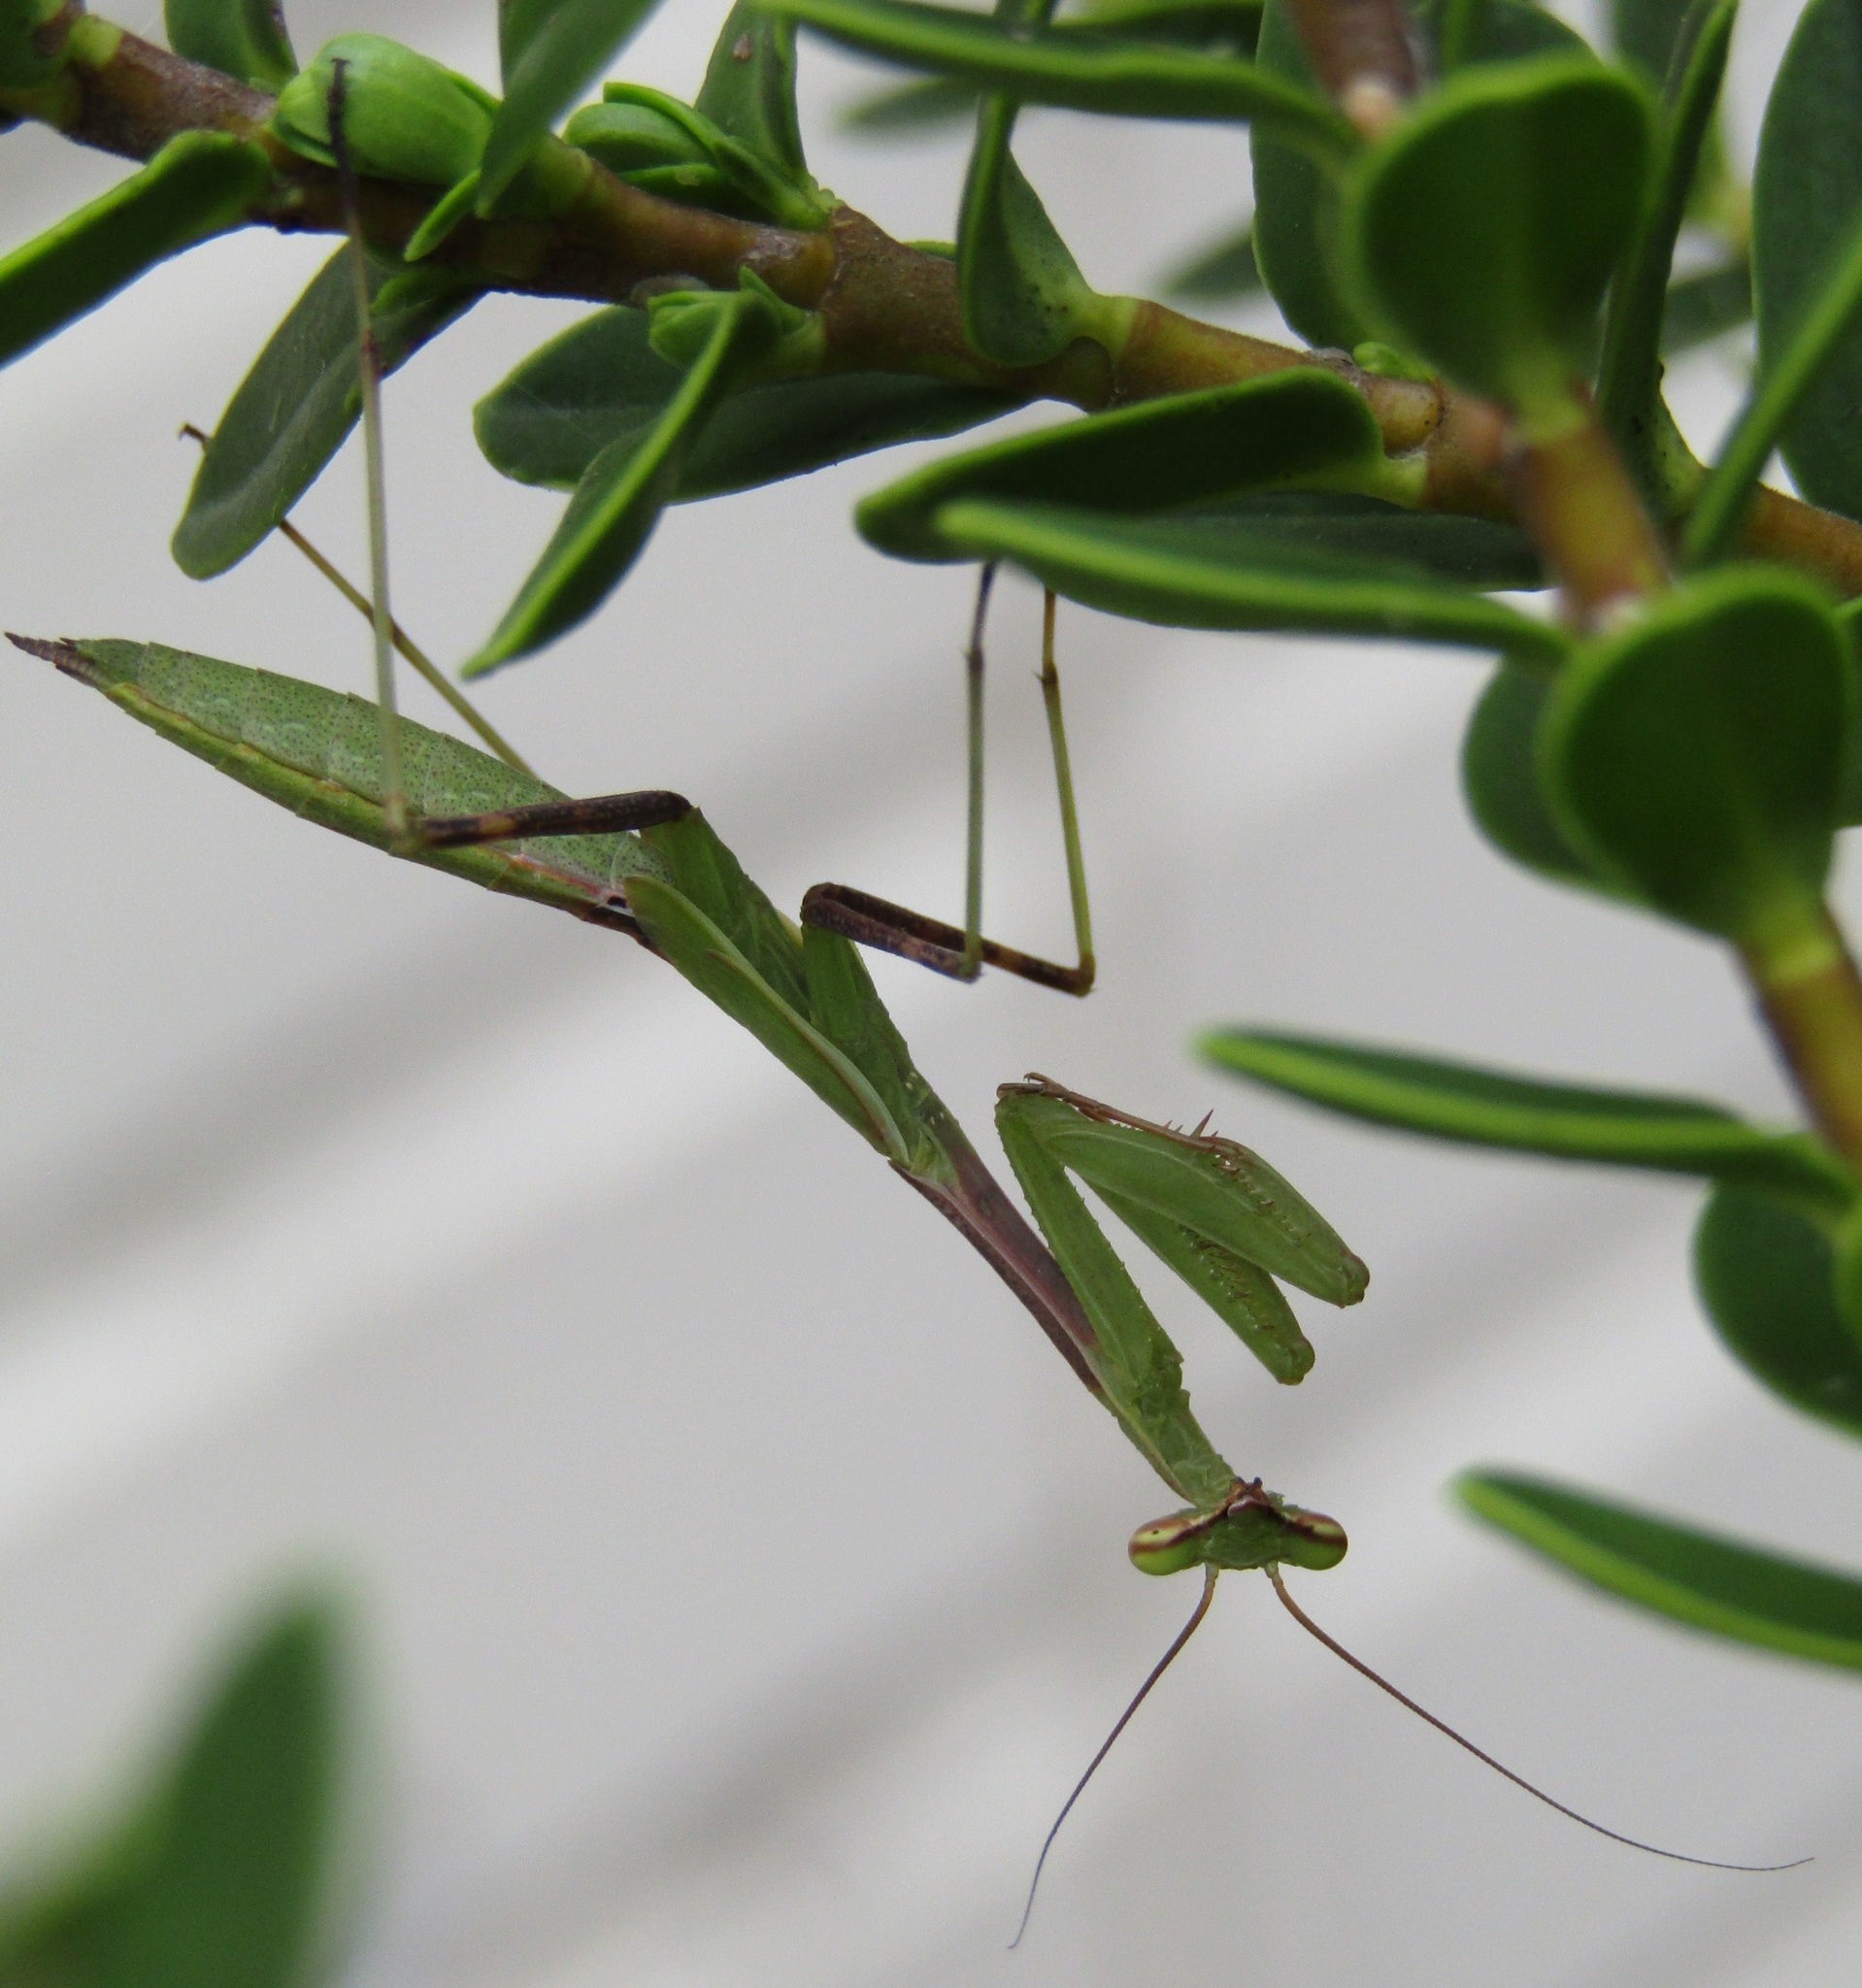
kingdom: Animalia
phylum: Arthropoda
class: Insecta
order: Mantodea
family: Miomantidae
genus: Miomantis
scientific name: Miomantis caffra
